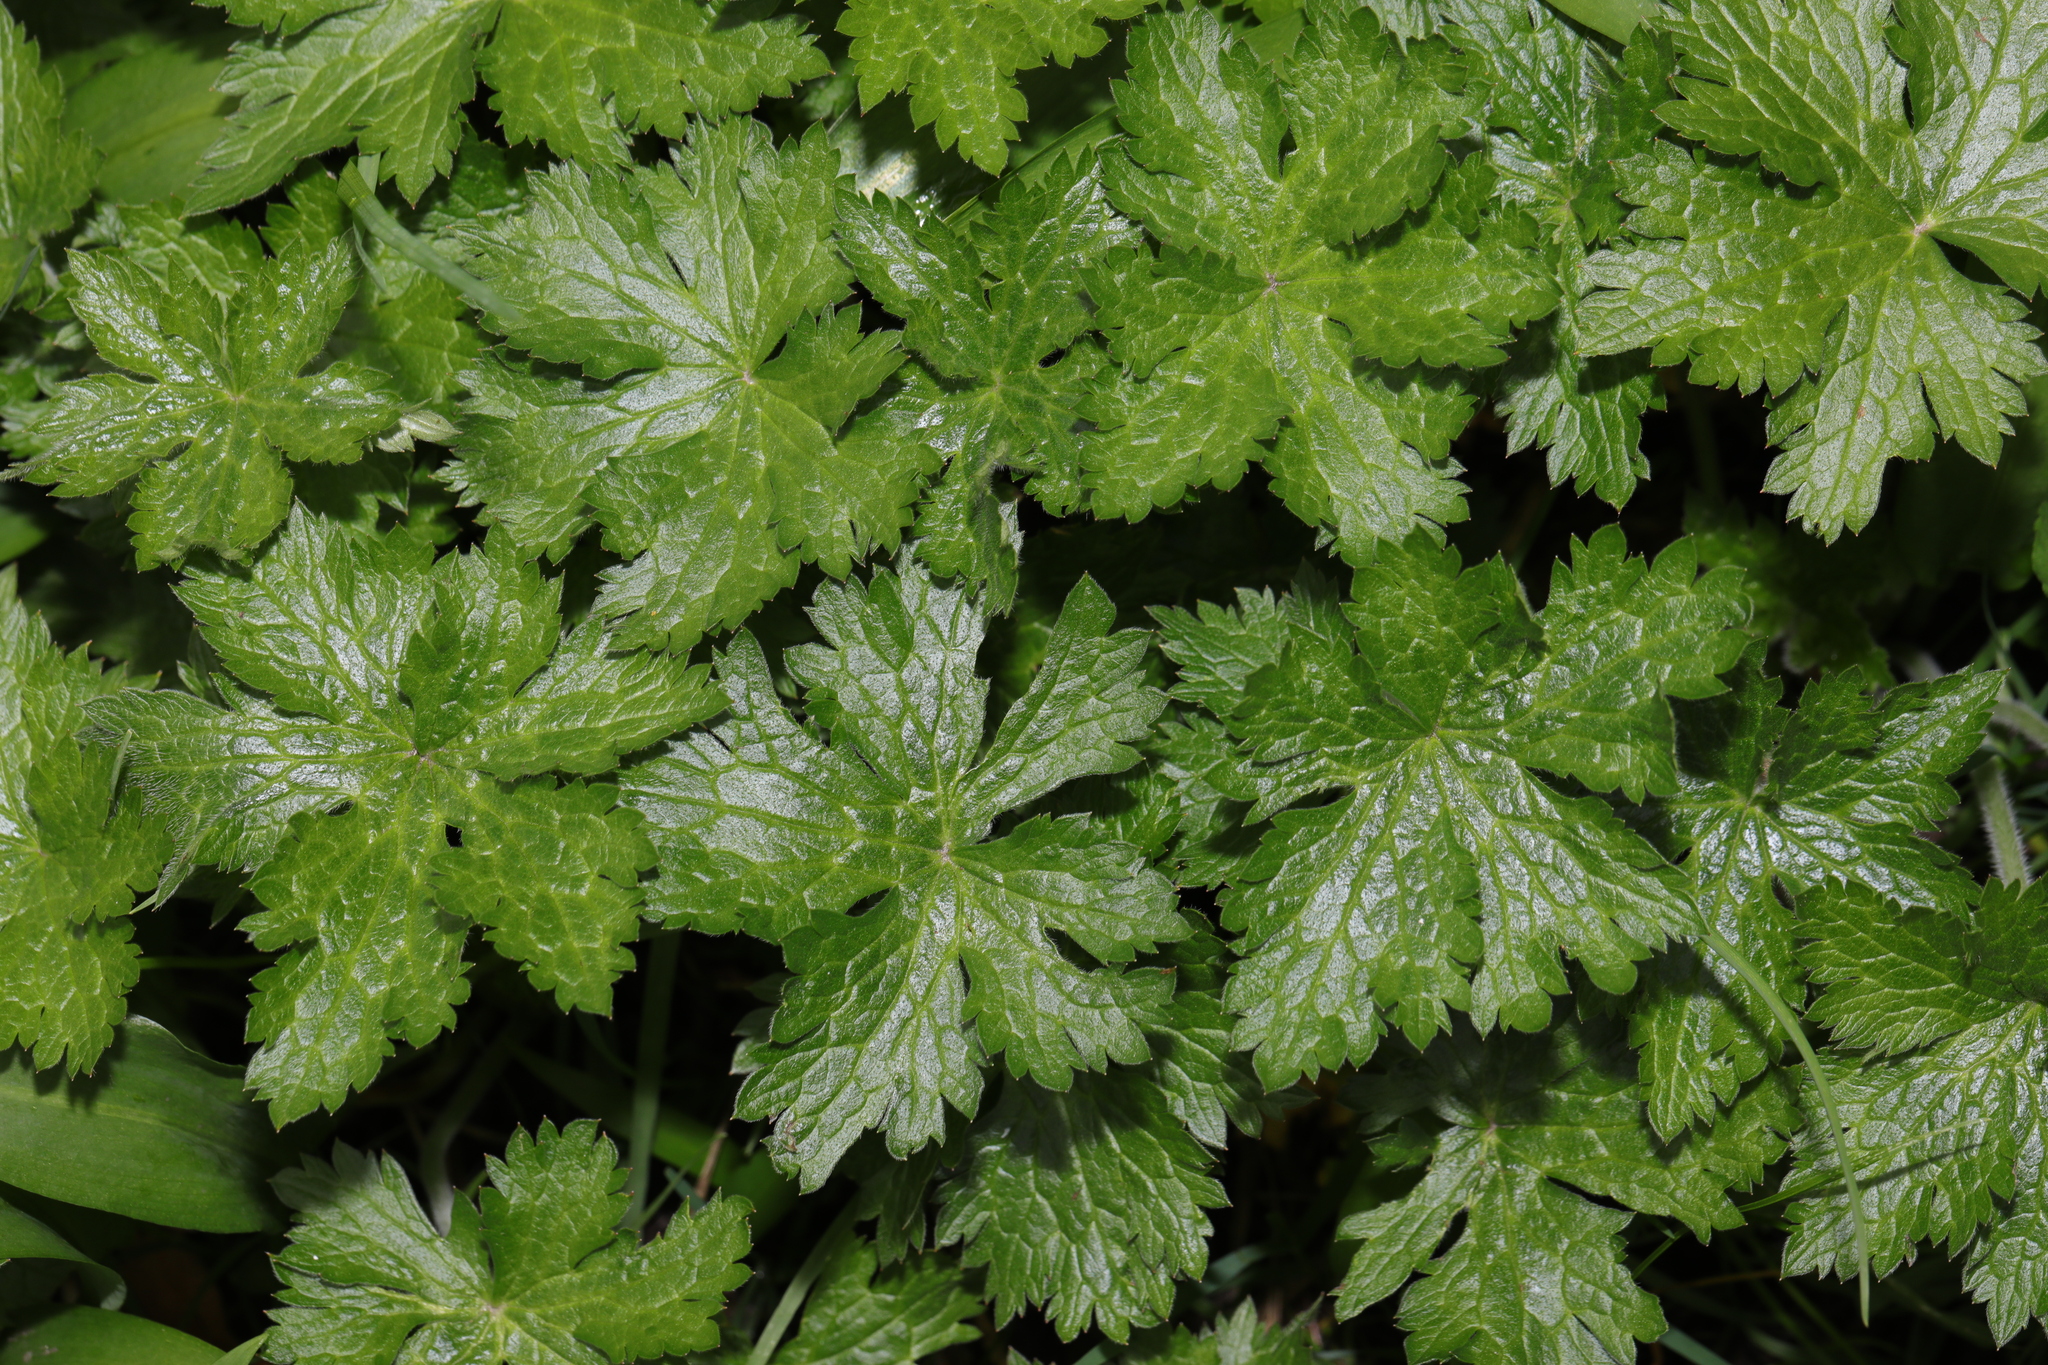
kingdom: Plantae
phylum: Tracheophyta
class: Magnoliopsida
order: Geraniales
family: Geraniaceae
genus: Geranium
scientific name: Geranium oxonianum
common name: Druce's crane's-bill
